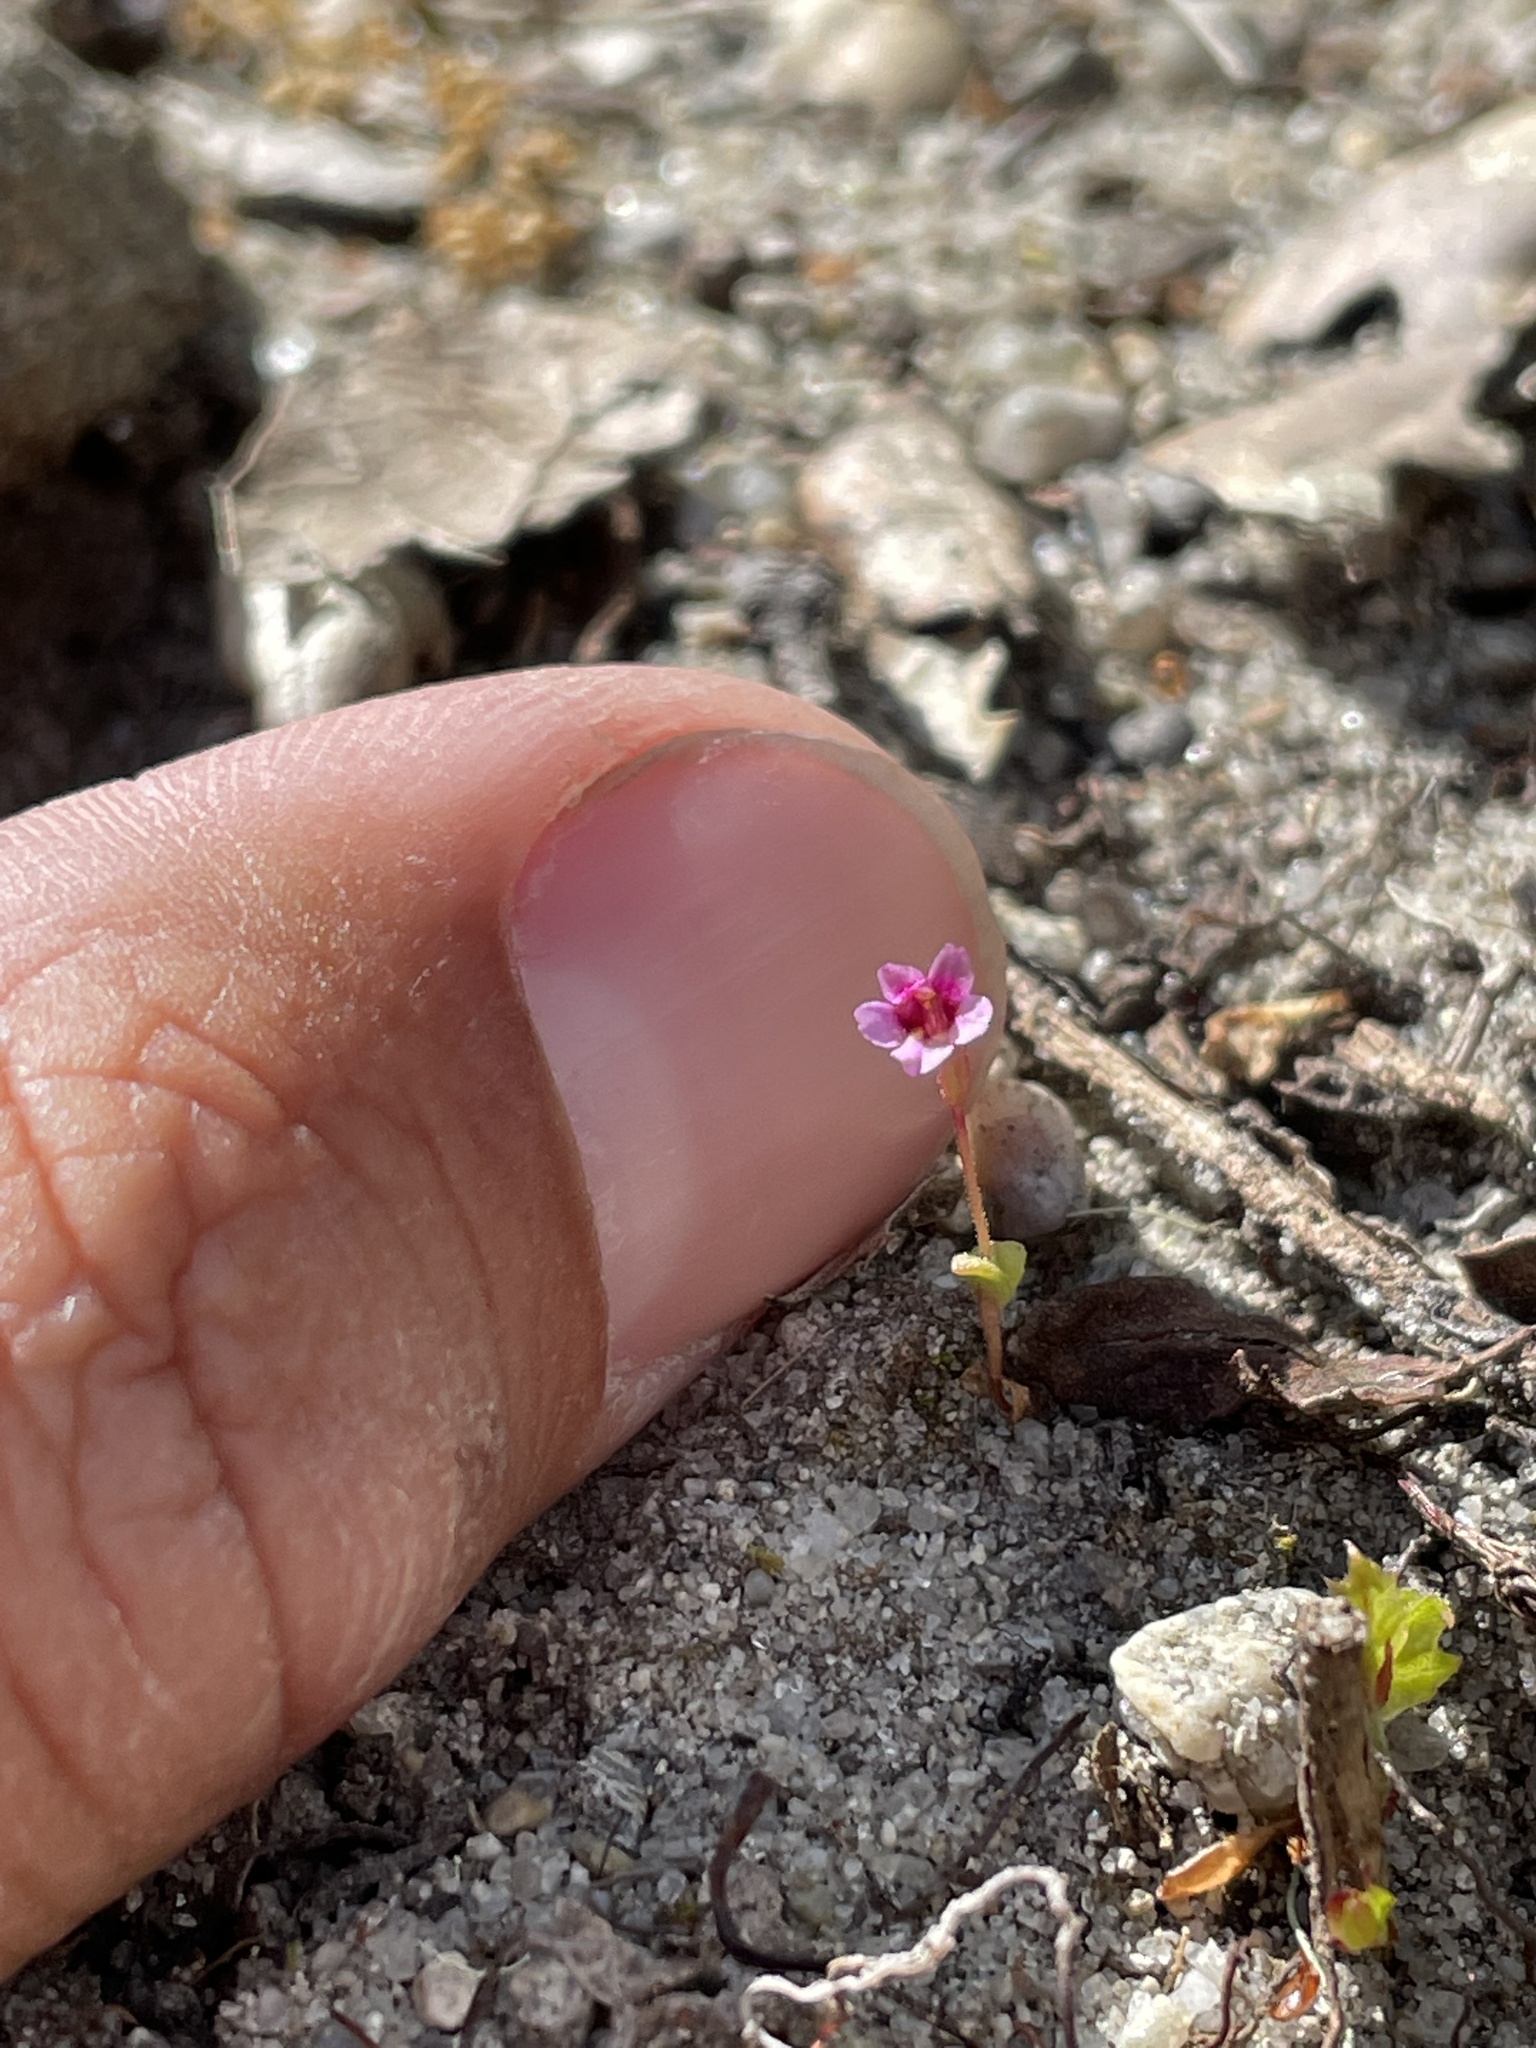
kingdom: Plantae
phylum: Tracheophyta
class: Magnoliopsida
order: Lamiales
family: Phrymaceae
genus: Erythranthe
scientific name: Erythranthe androsacea
